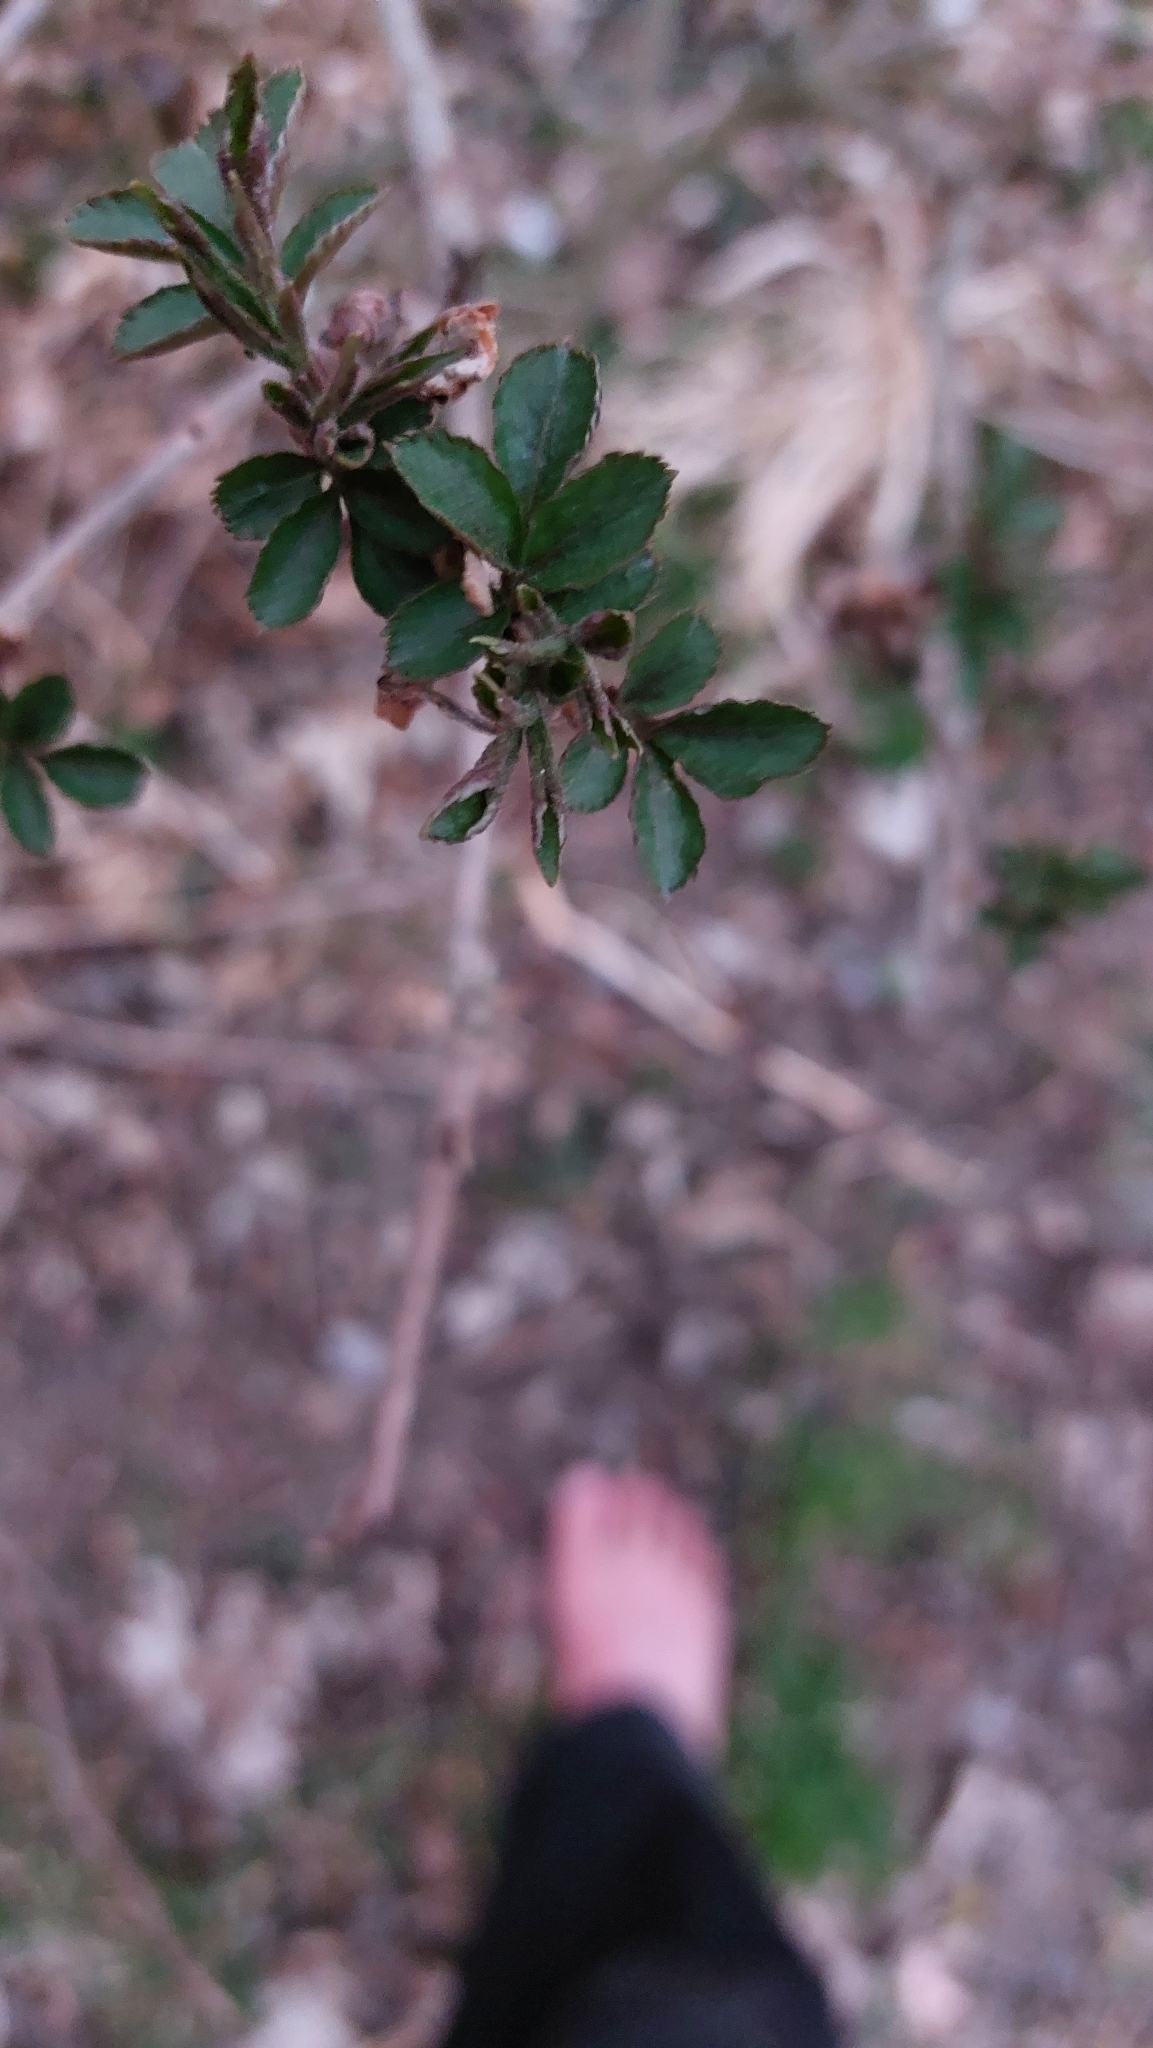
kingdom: Plantae
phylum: Tracheophyta
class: Magnoliopsida
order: Dipsacales
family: Viburnaceae
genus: Sambucus
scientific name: Sambucus nigra
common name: Elder
